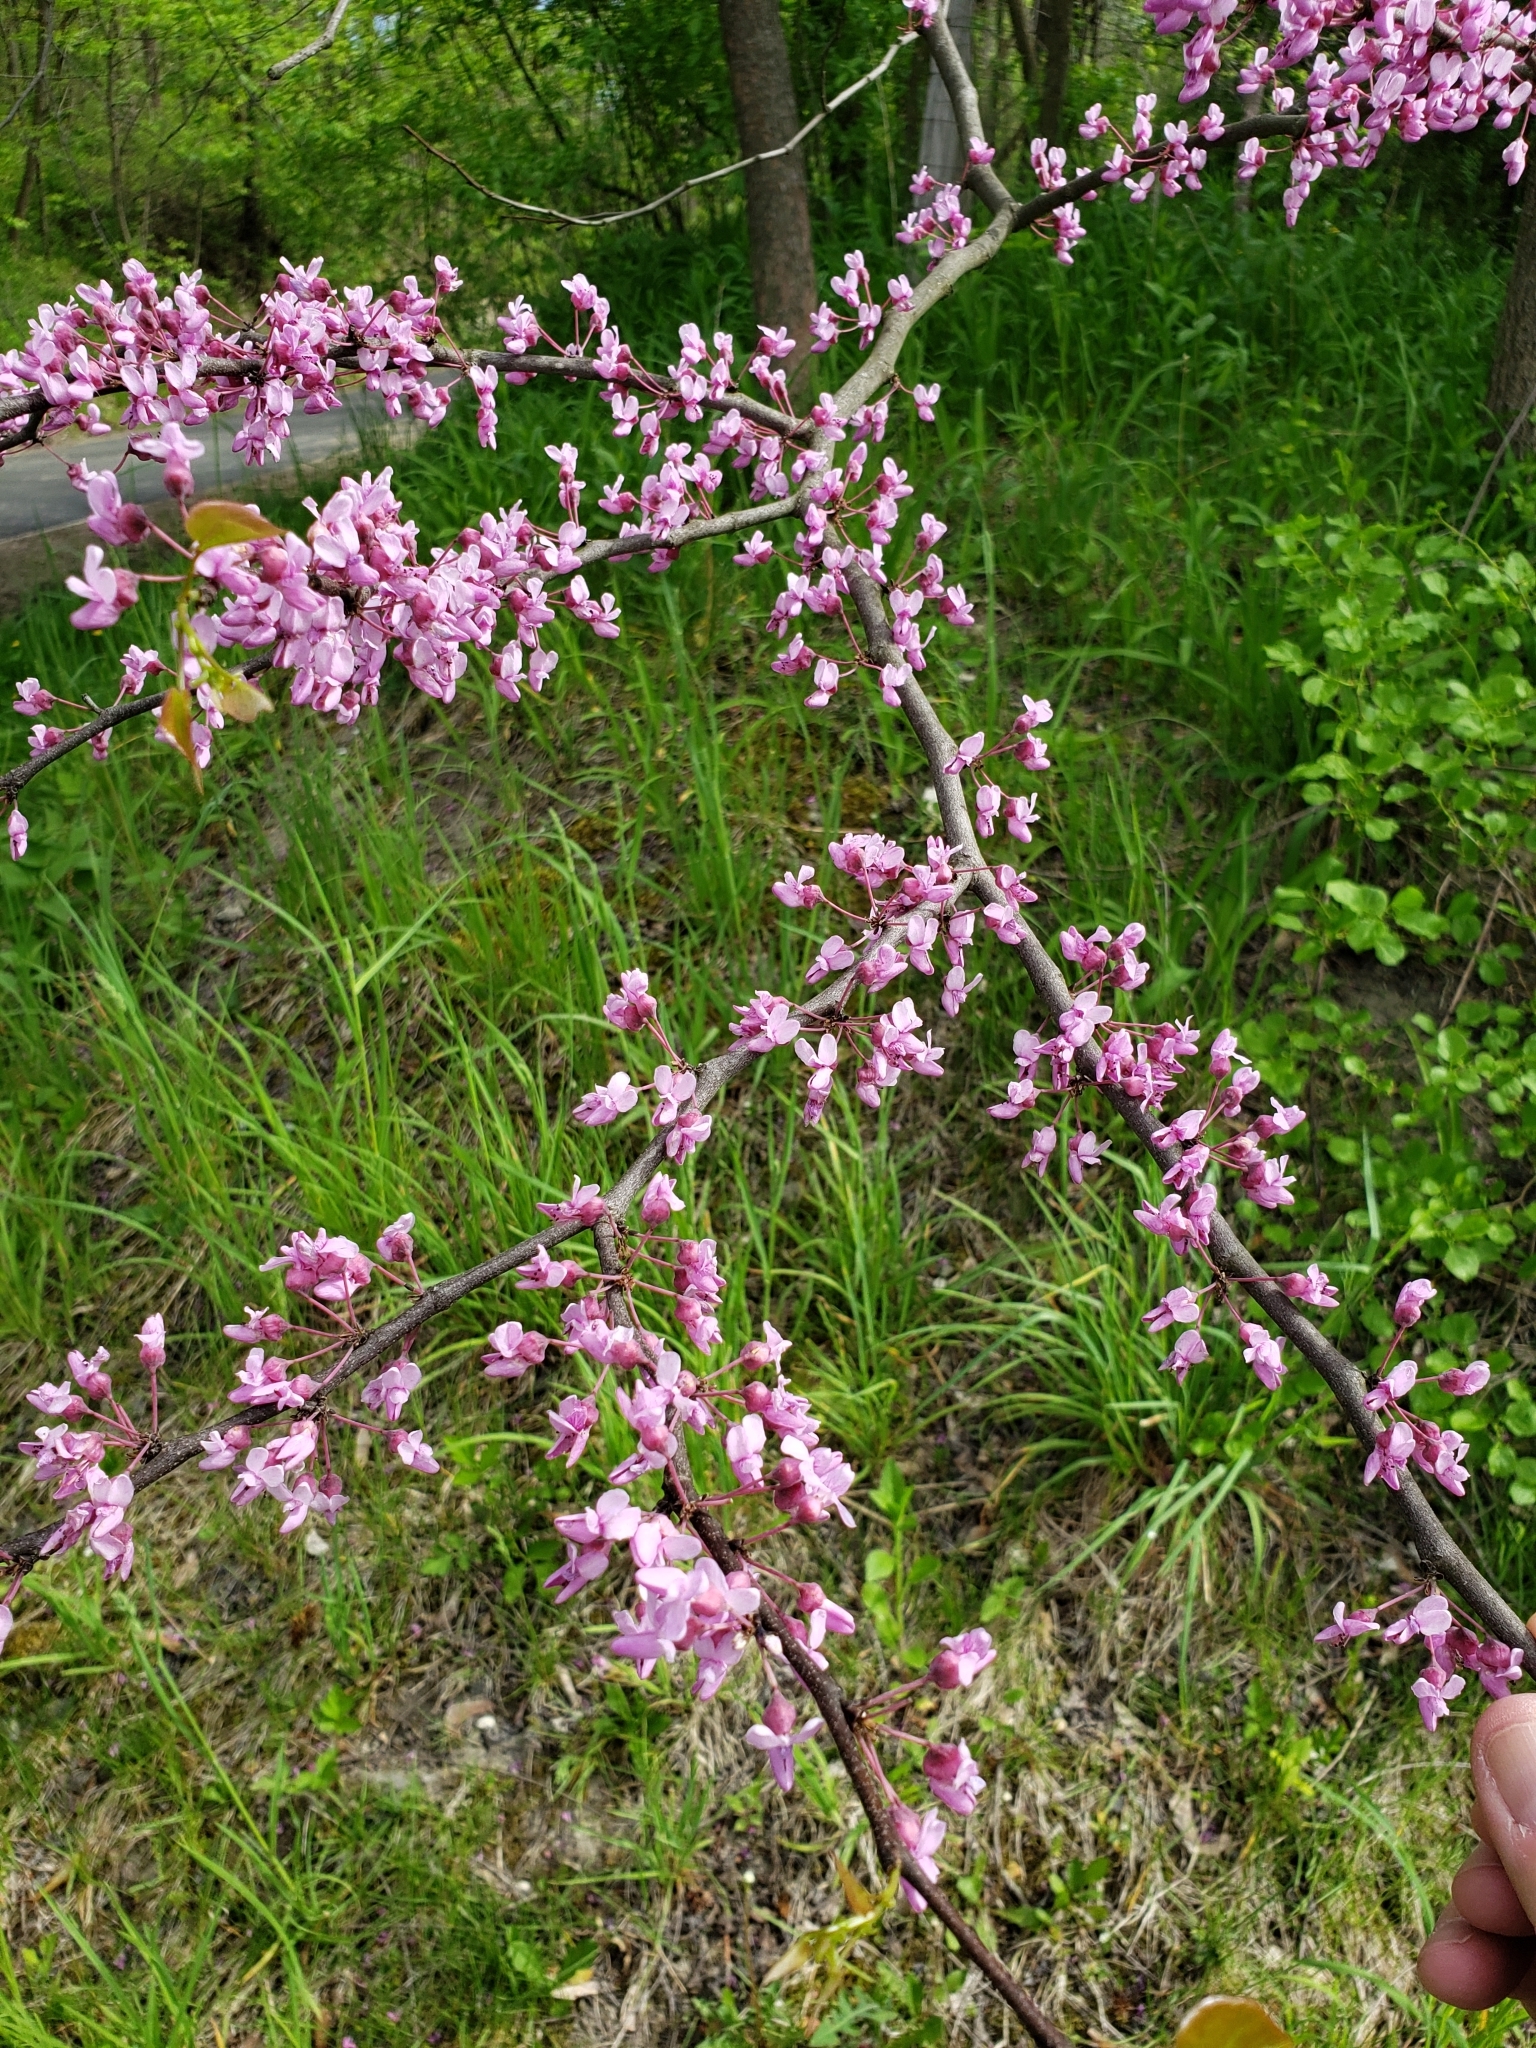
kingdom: Plantae
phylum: Tracheophyta
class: Magnoliopsida
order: Fabales
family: Fabaceae
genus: Cercis
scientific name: Cercis canadensis
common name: Eastern redbud
